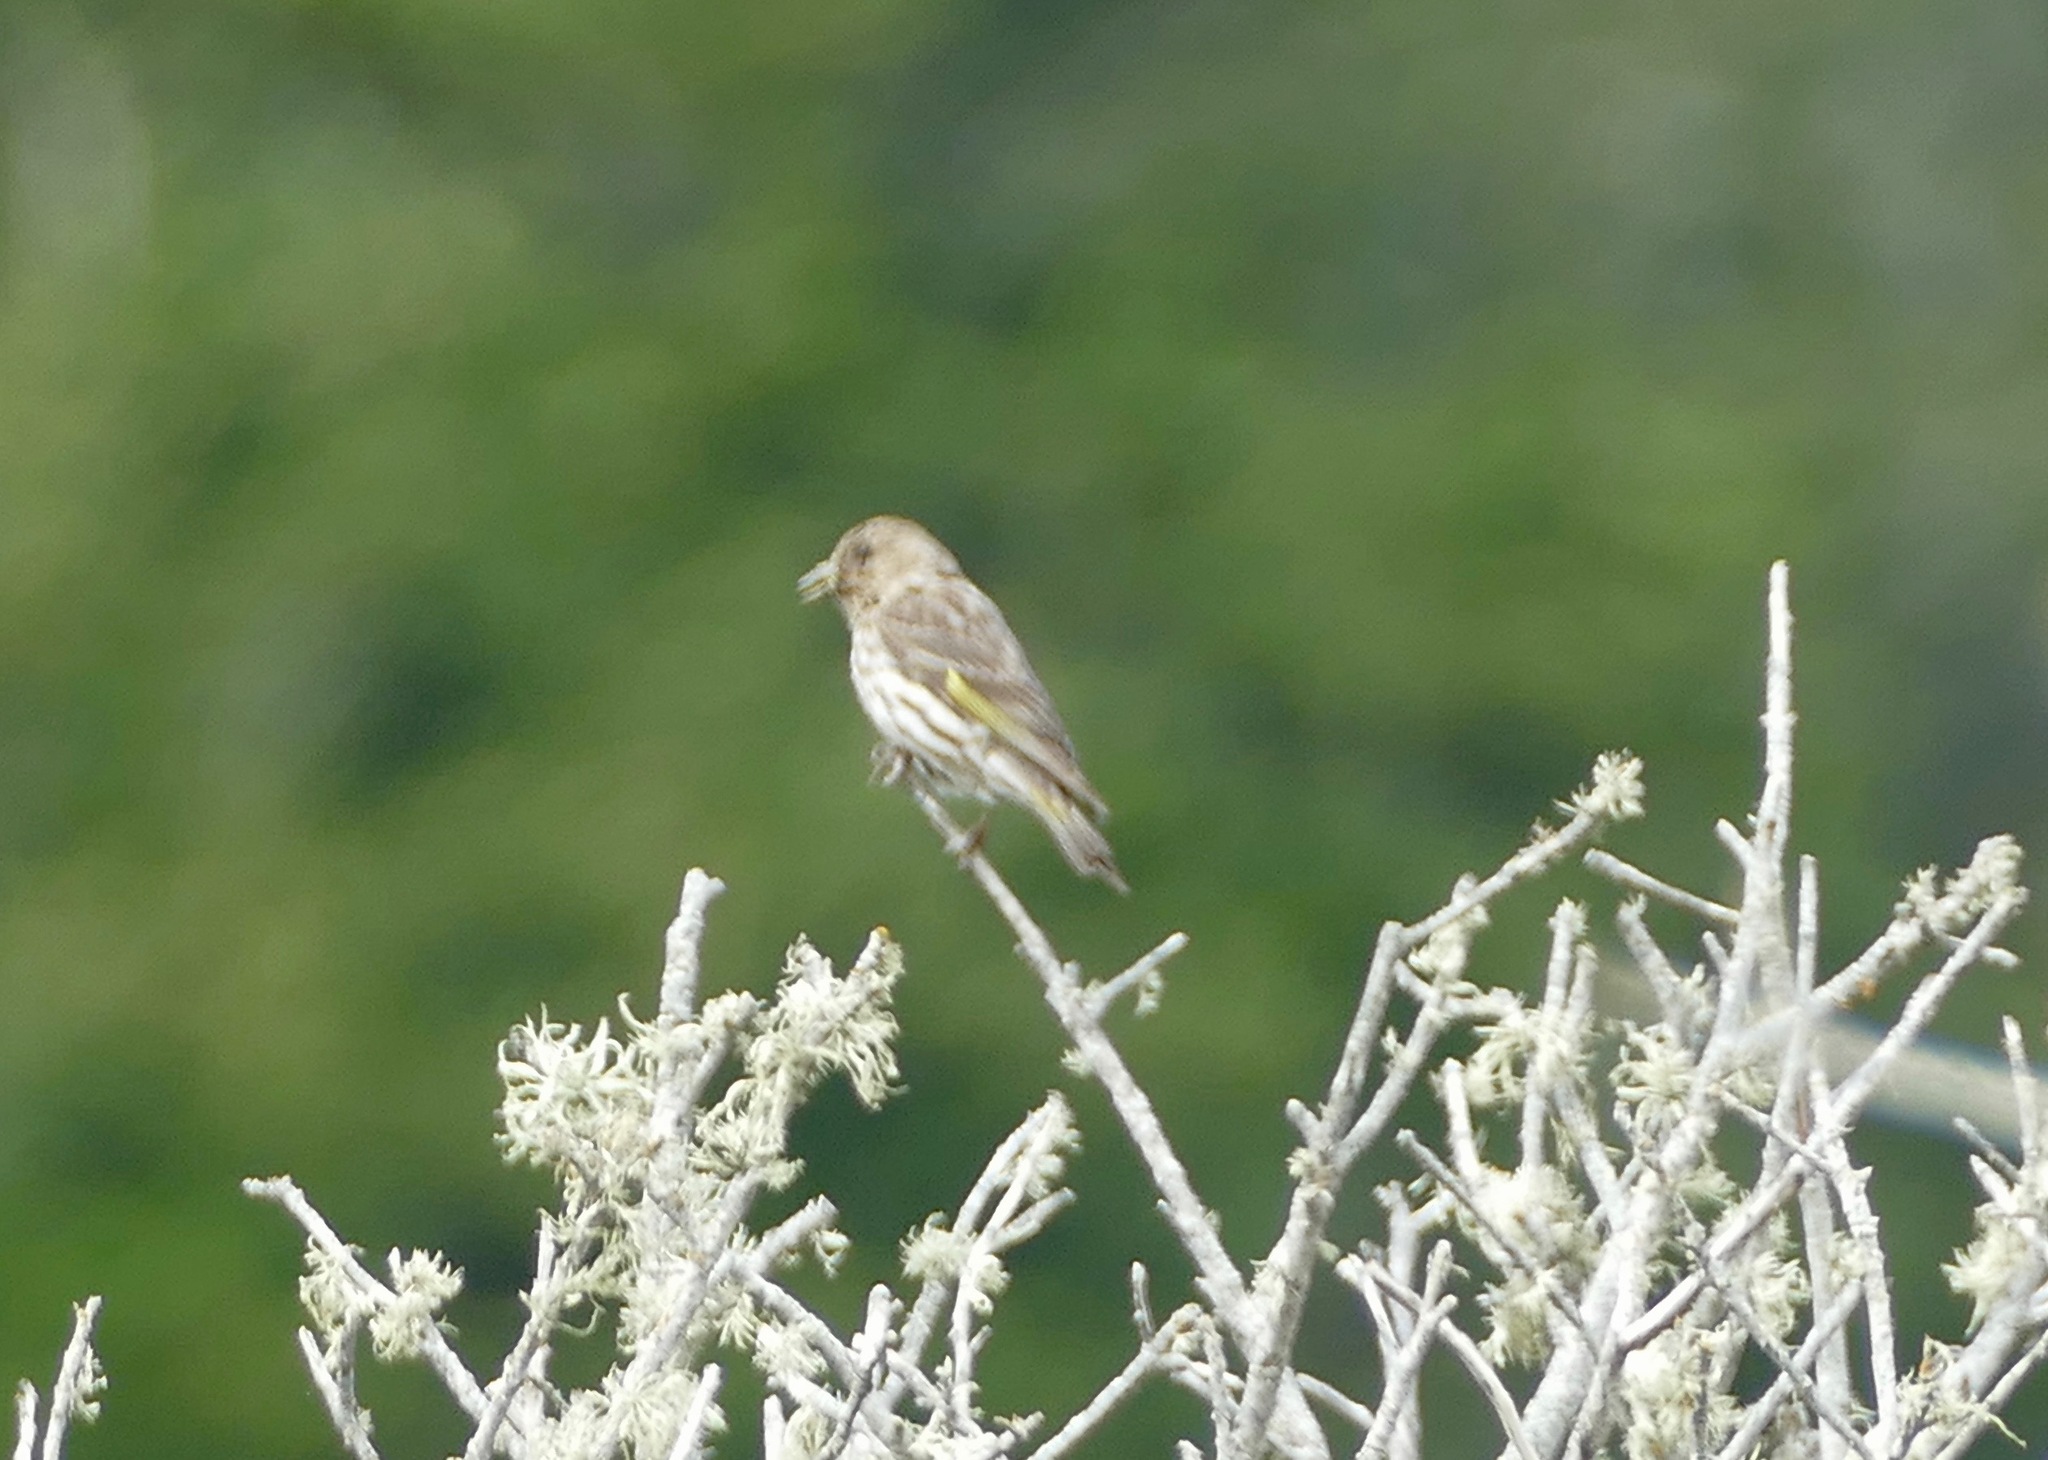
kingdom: Animalia
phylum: Chordata
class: Aves
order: Passeriformes
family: Fringillidae
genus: Spinus
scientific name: Spinus pinus
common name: Pine siskin
